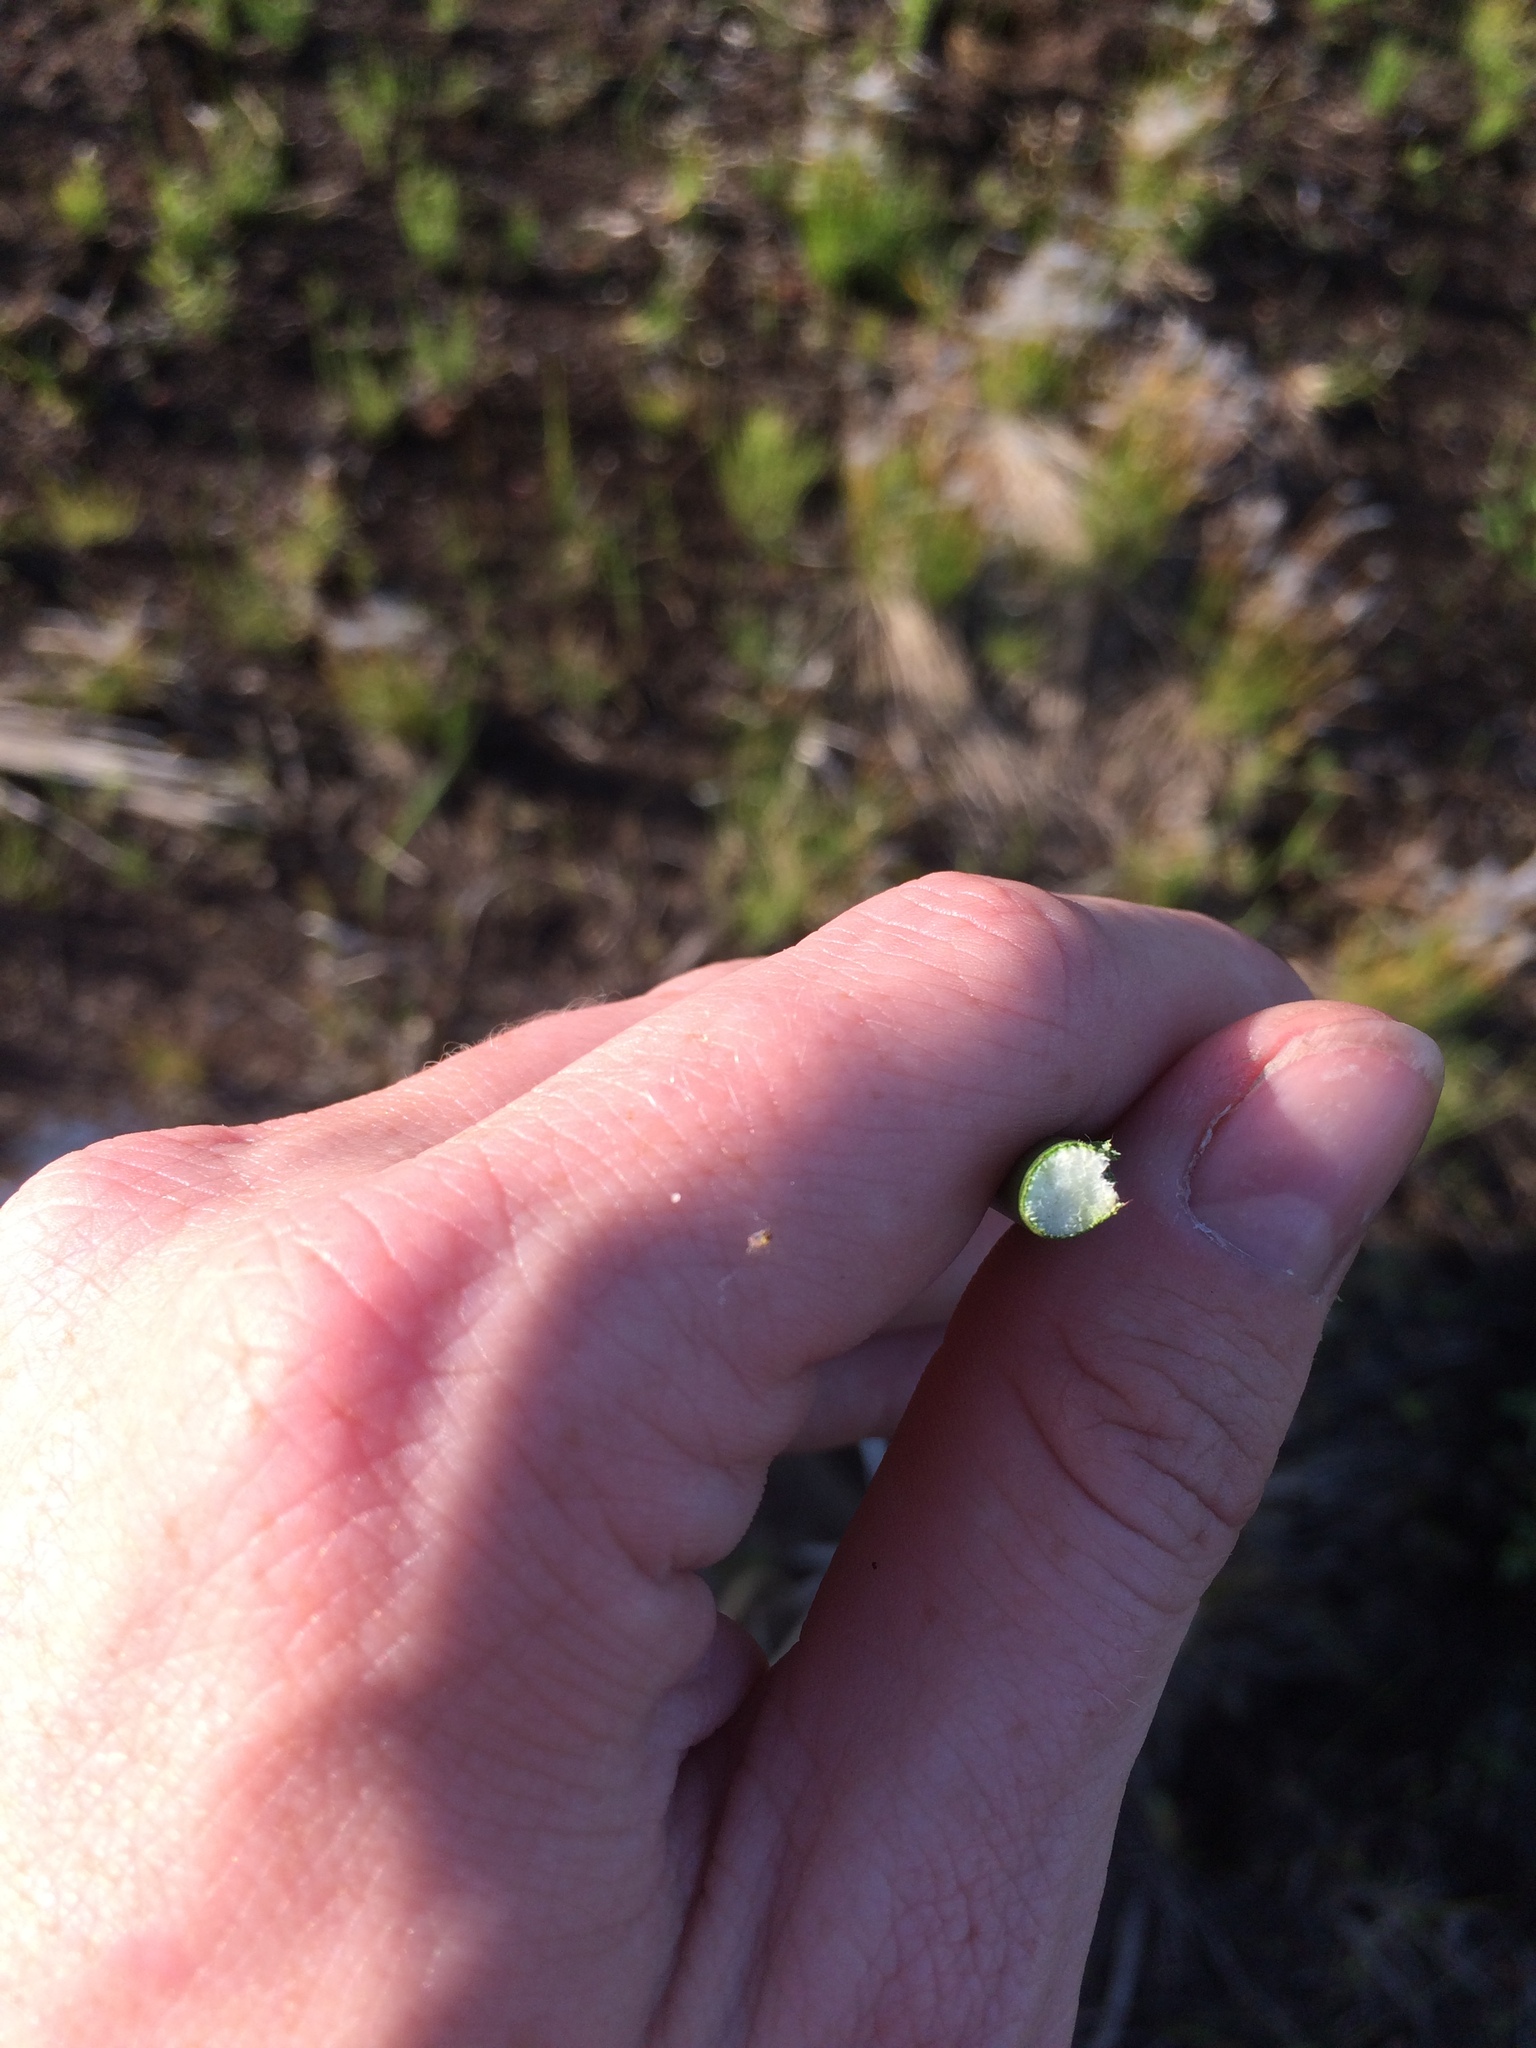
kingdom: Plantae
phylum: Tracheophyta
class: Liliopsida
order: Poales
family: Cyperaceae
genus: Schoenoplectus
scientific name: Schoenoplectus acutus
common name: Hardstem bulrush
